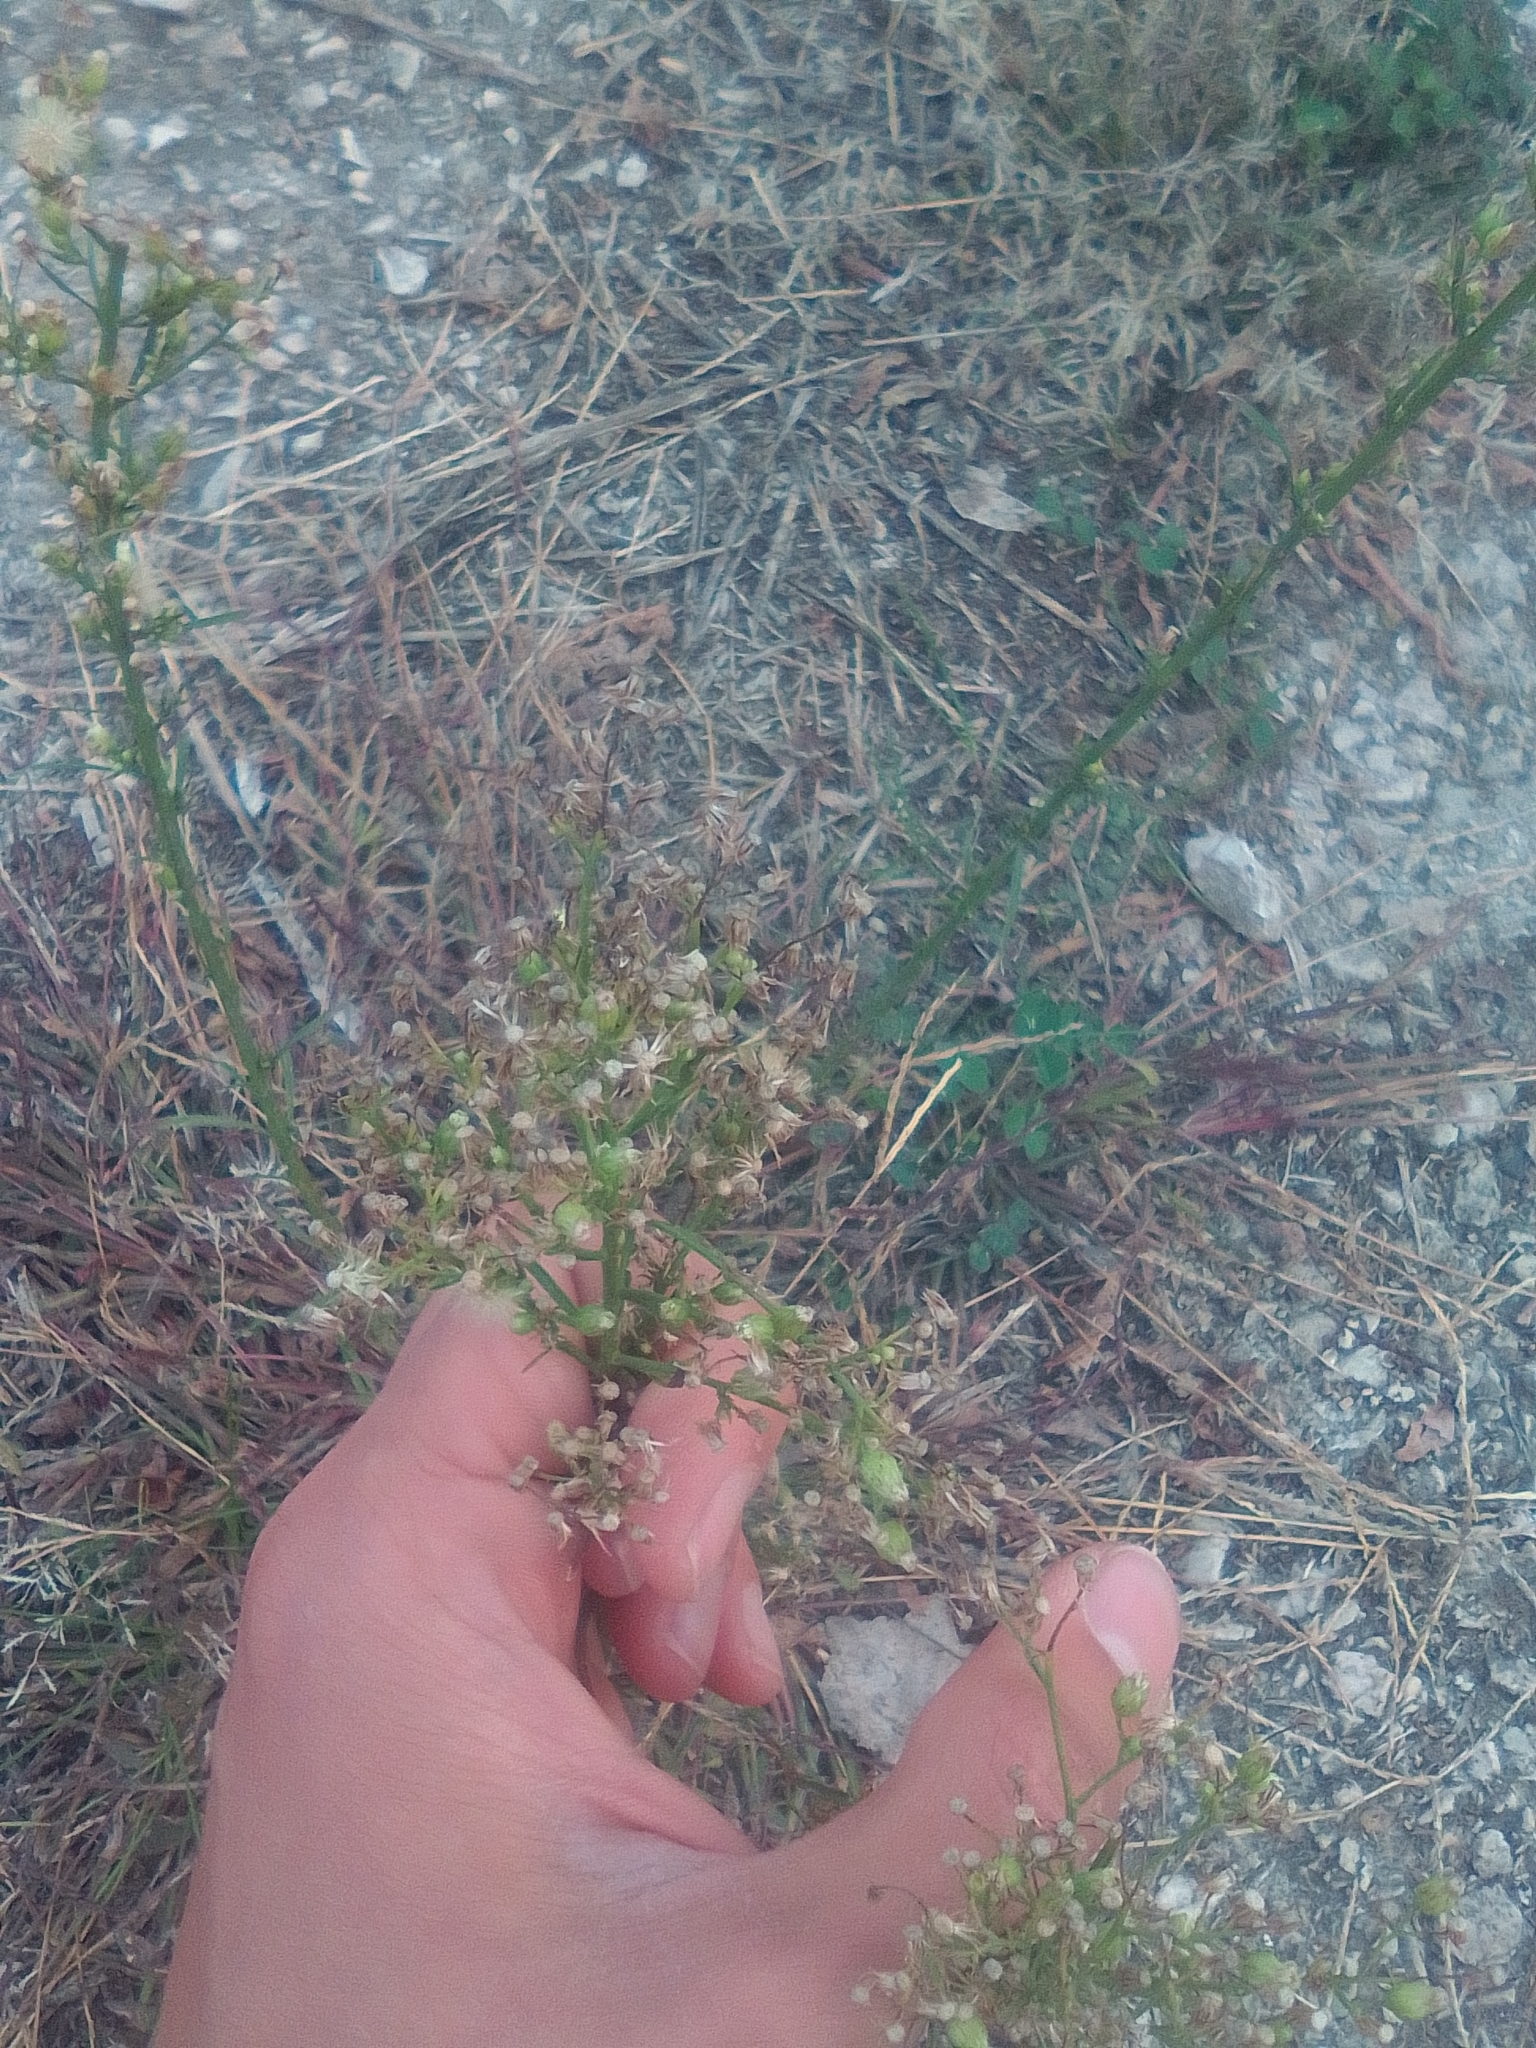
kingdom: Plantae
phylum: Tracheophyta
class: Magnoliopsida
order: Asterales
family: Asteraceae
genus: Erigeron
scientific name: Erigeron canadensis
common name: Canadian fleabane
